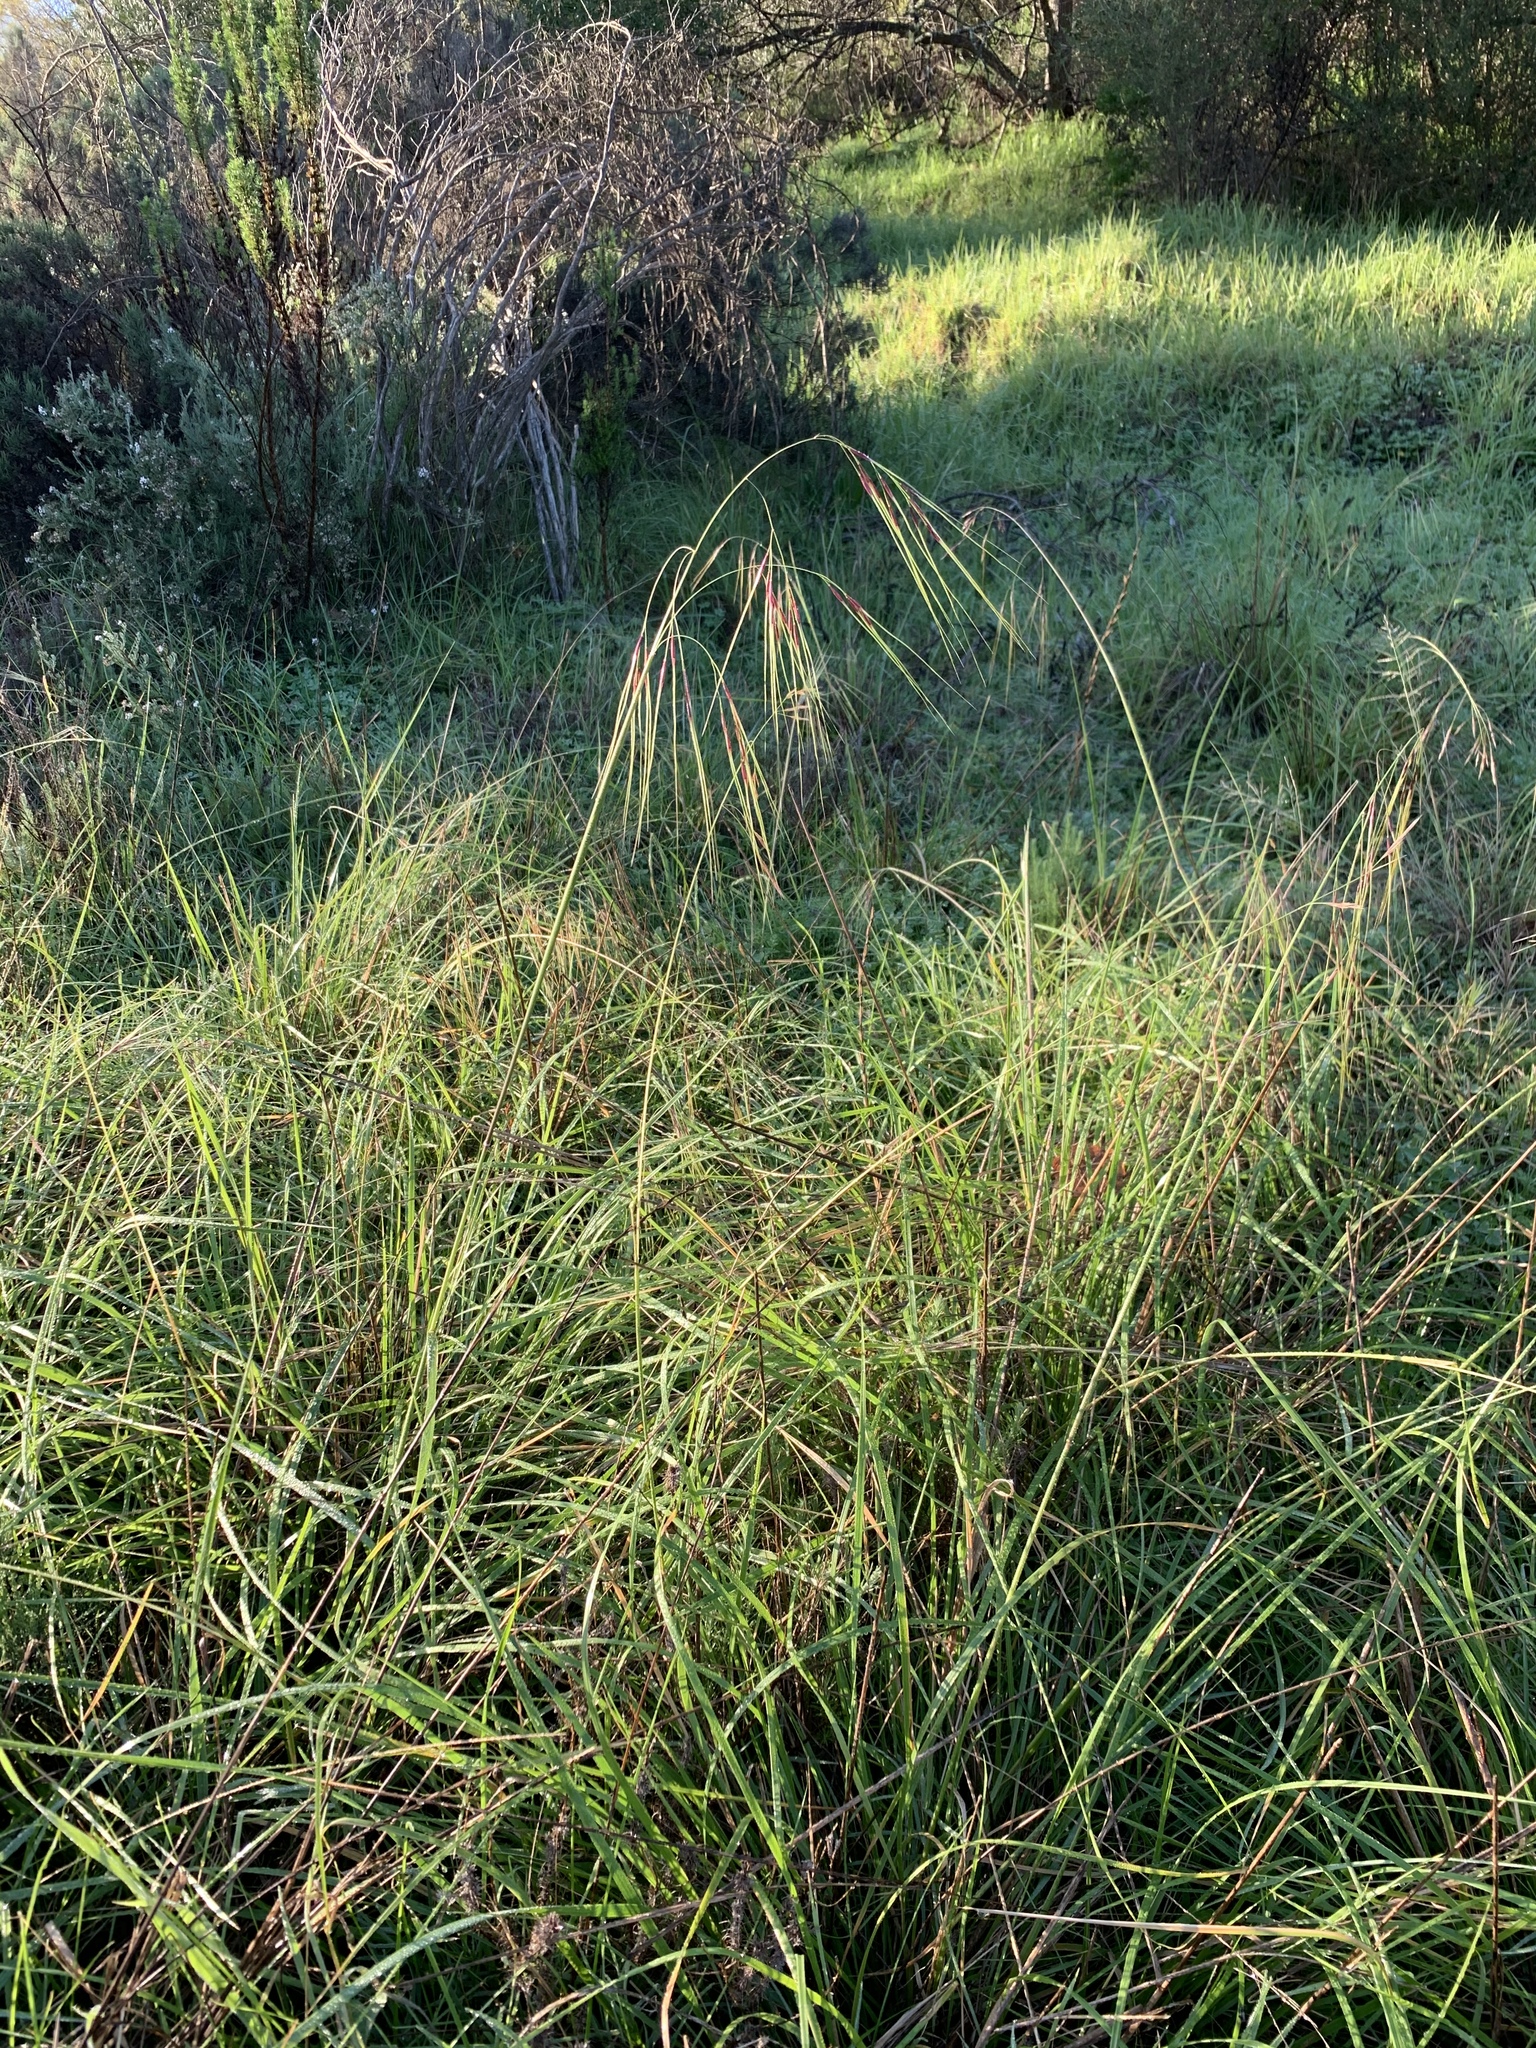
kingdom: Plantae
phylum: Tracheophyta
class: Liliopsida
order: Poales
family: Poaceae
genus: Nassella
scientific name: Nassella neesiana
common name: American needle-grass
